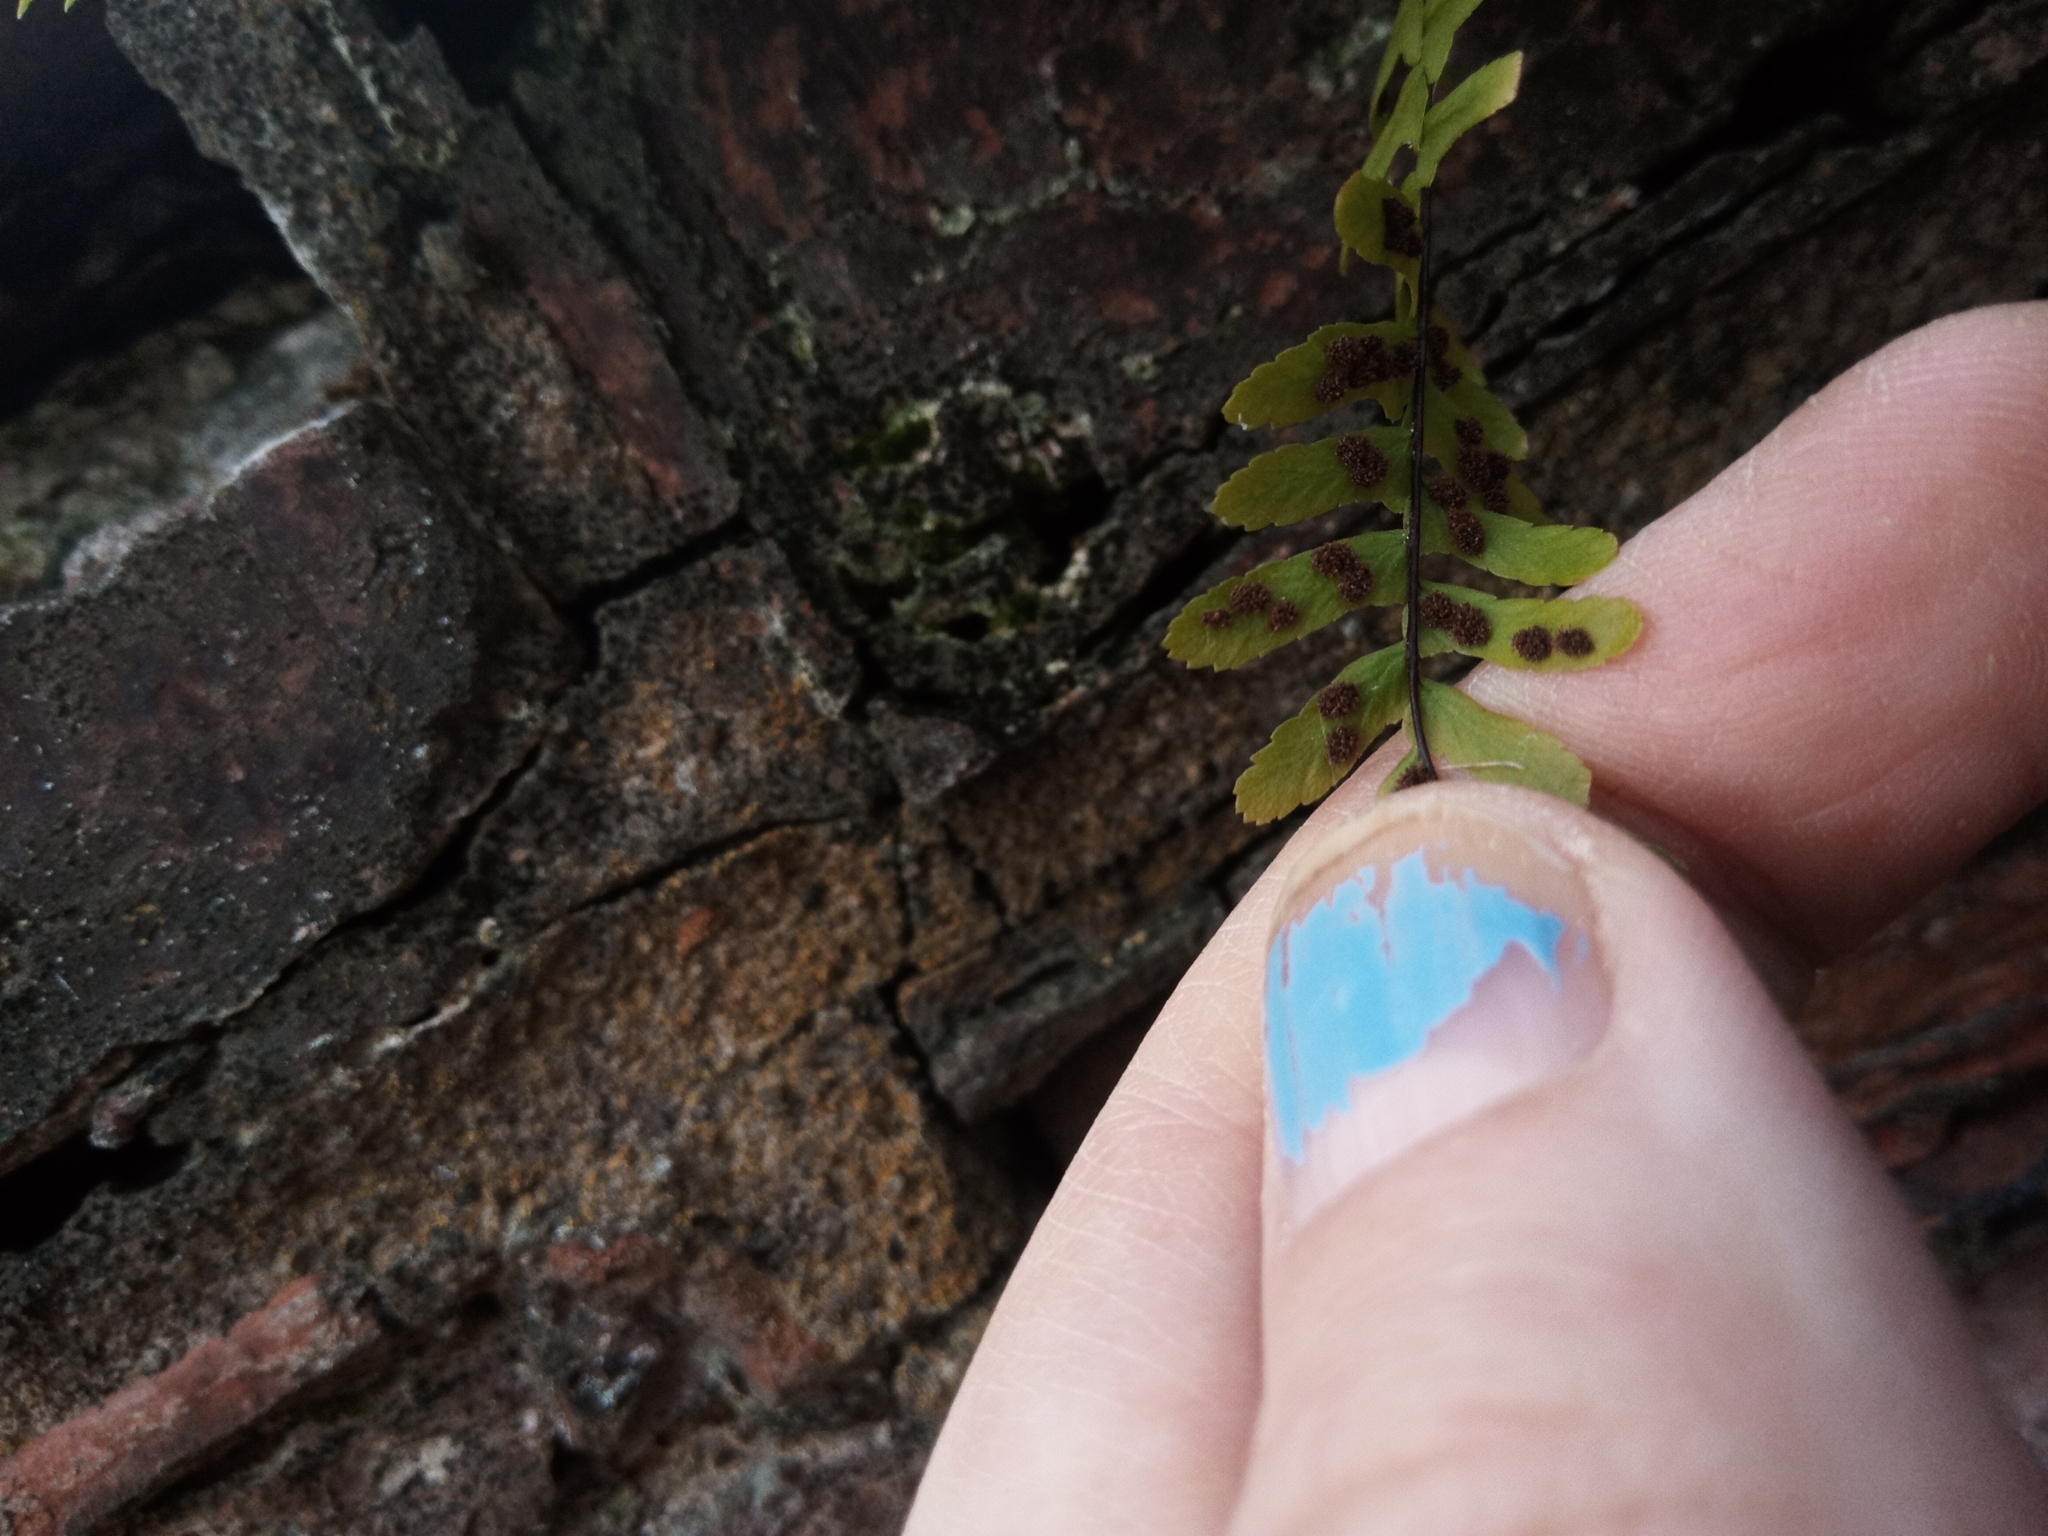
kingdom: Plantae
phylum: Tracheophyta
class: Polypodiopsida
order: Polypodiales
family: Aspleniaceae
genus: Asplenium
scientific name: Asplenium platyneuron
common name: Ebony spleenwort
